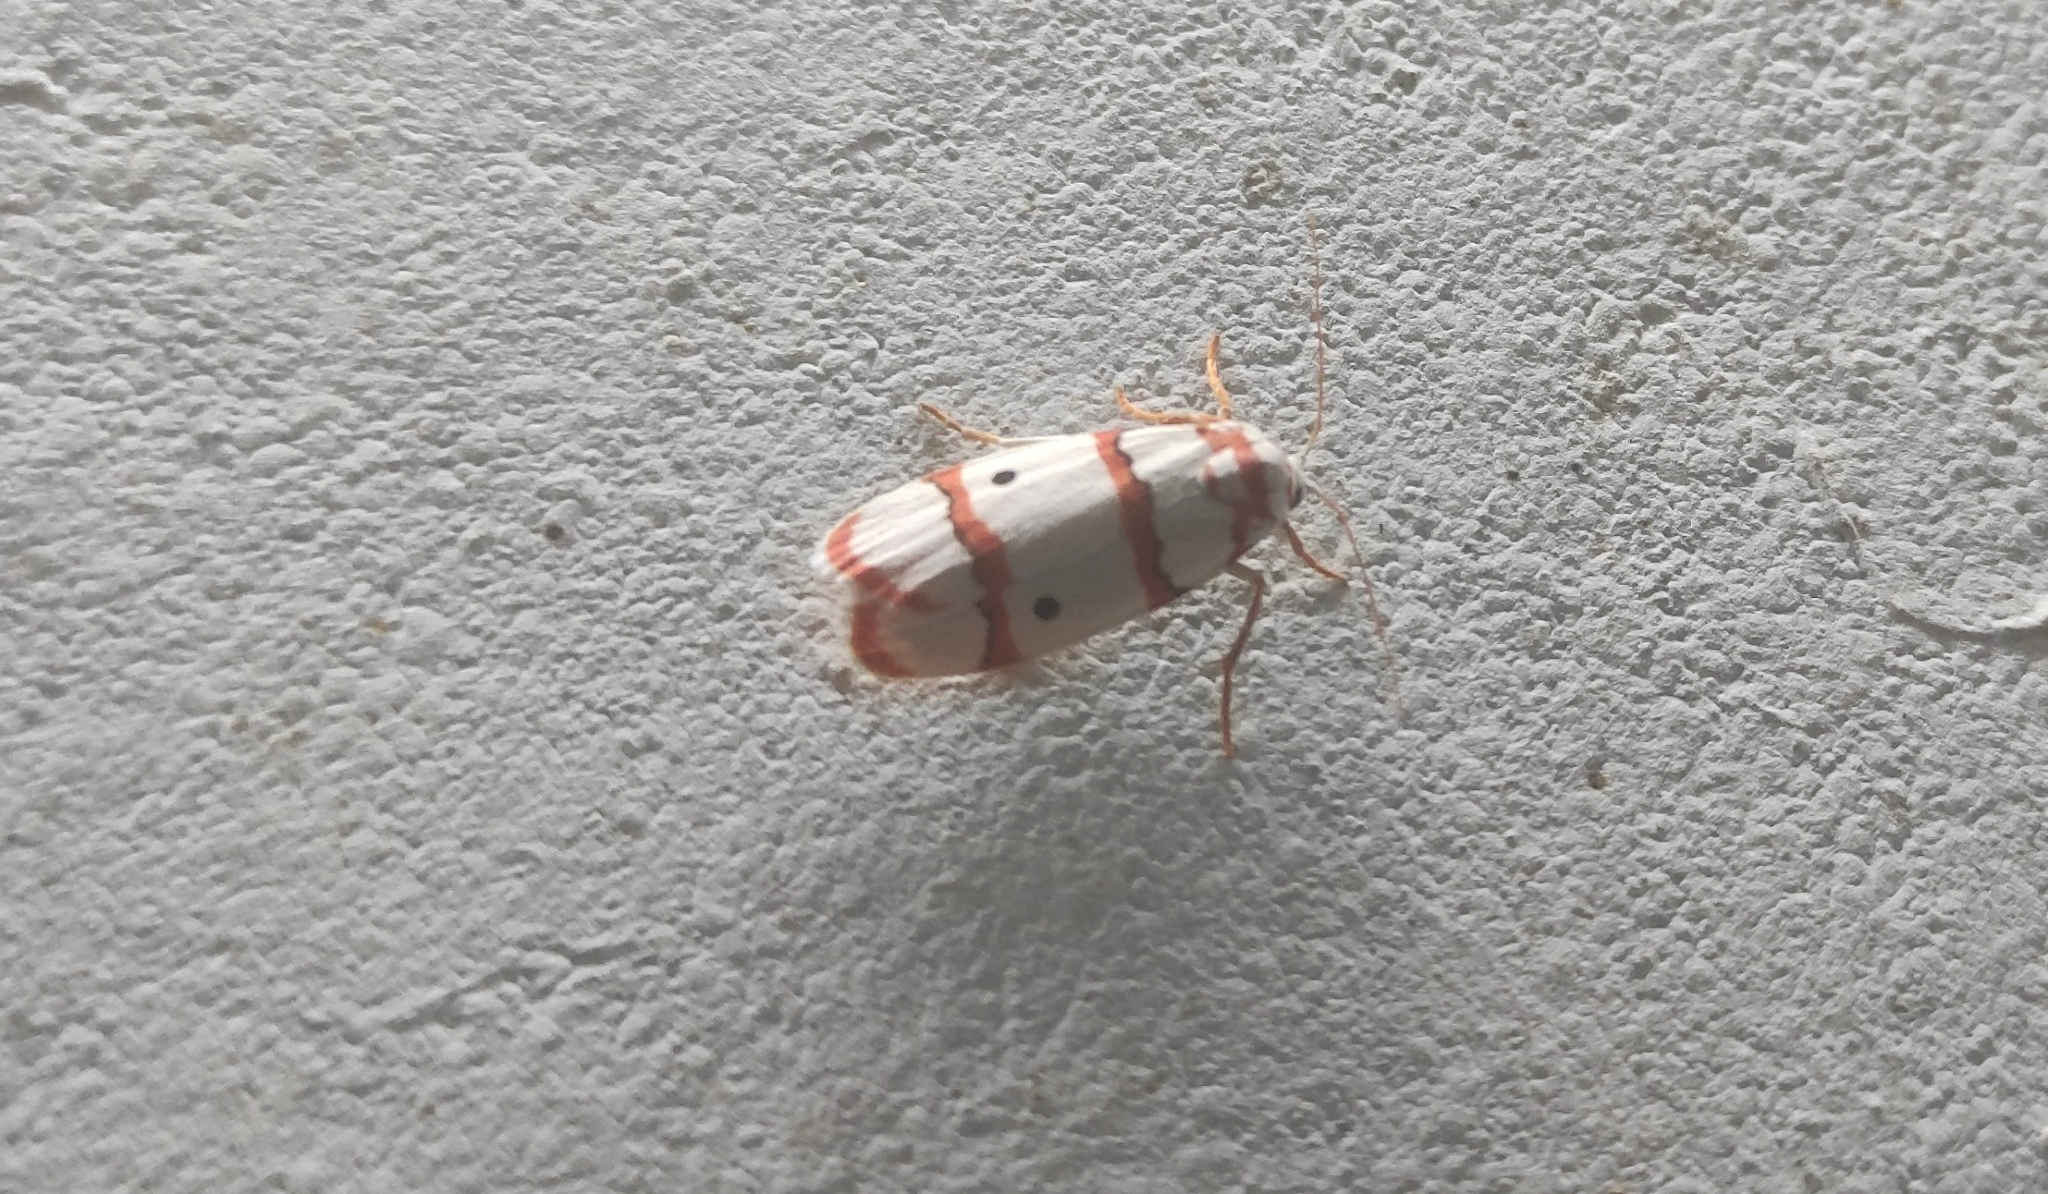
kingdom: Animalia
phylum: Arthropoda
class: Insecta
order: Lepidoptera
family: Erebidae
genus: Cyana
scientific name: Cyana peregrina
